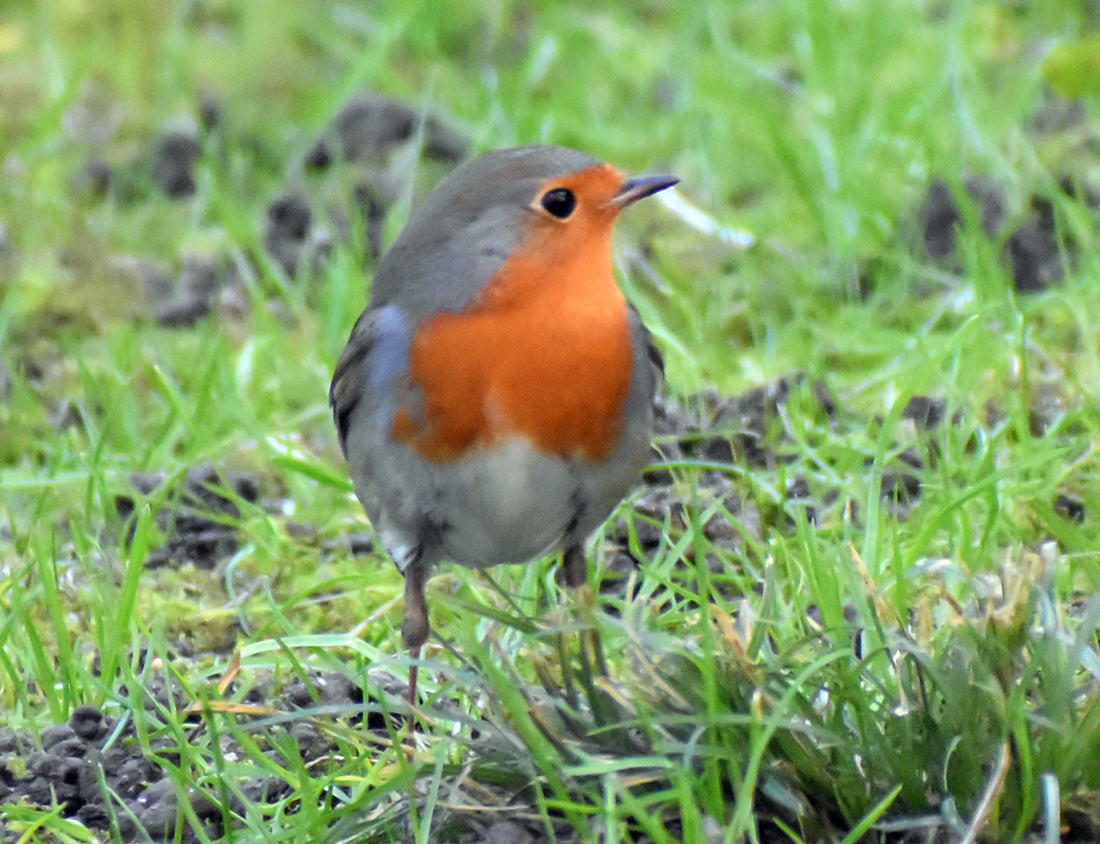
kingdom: Animalia
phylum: Chordata
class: Aves
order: Passeriformes
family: Muscicapidae
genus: Erithacus
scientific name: Erithacus rubecula
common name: European robin
